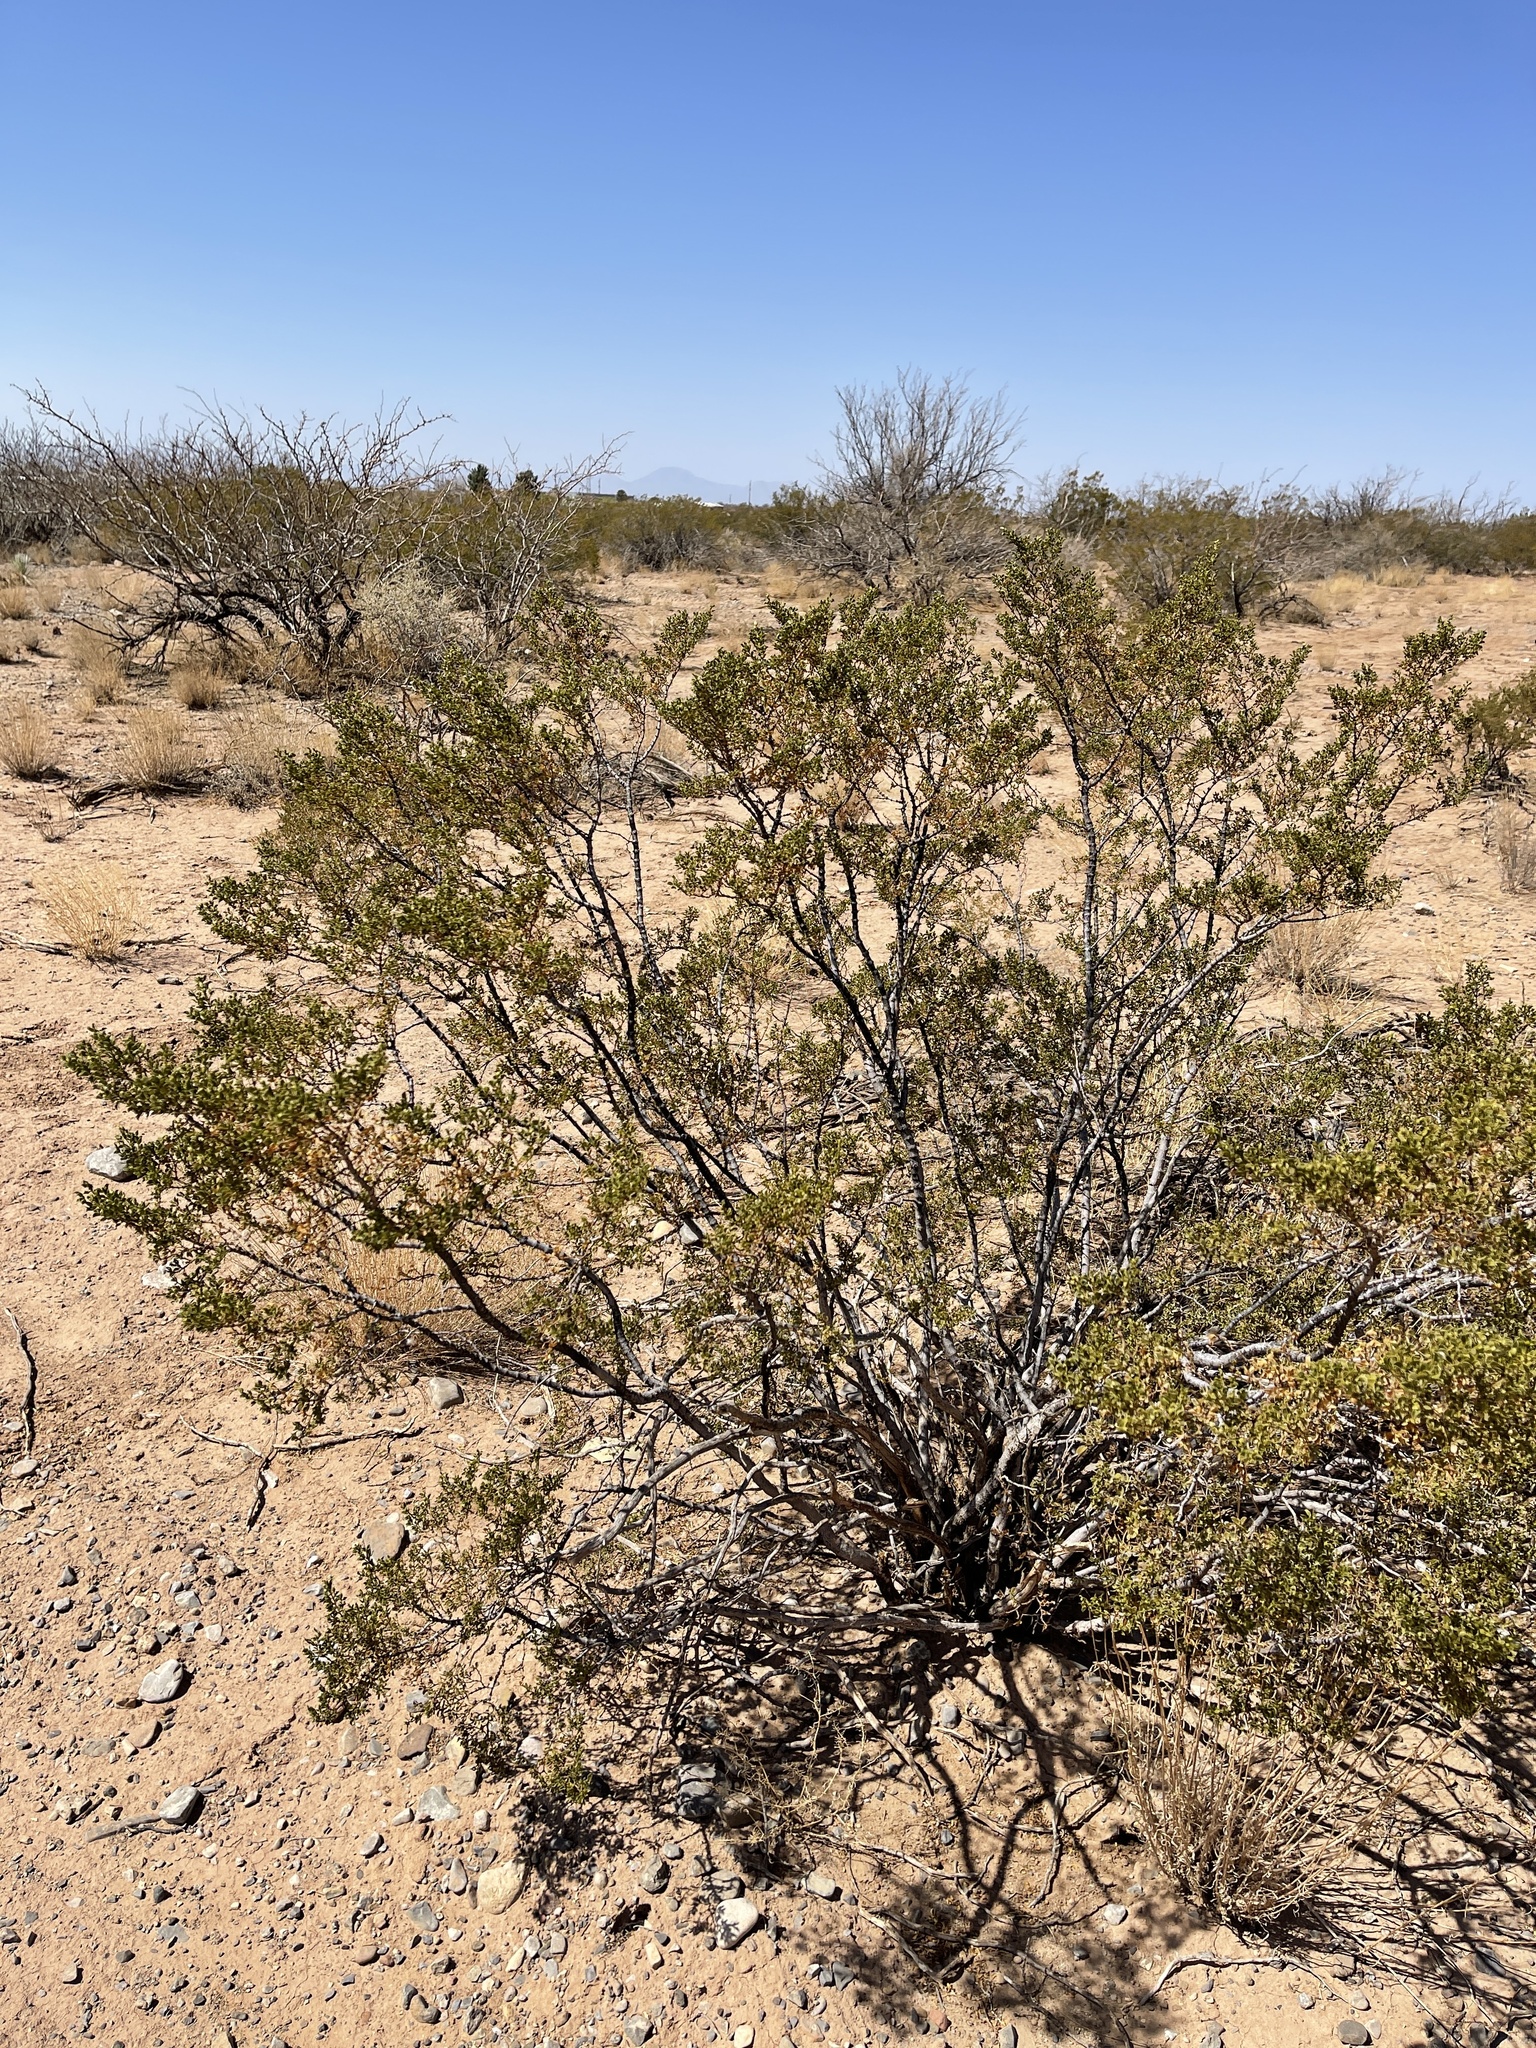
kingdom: Plantae
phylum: Tracheophyta
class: Magnoliopsida
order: Zygophyllales
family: Zygophyllaceae
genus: Larrea
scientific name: Larrea tridentata
